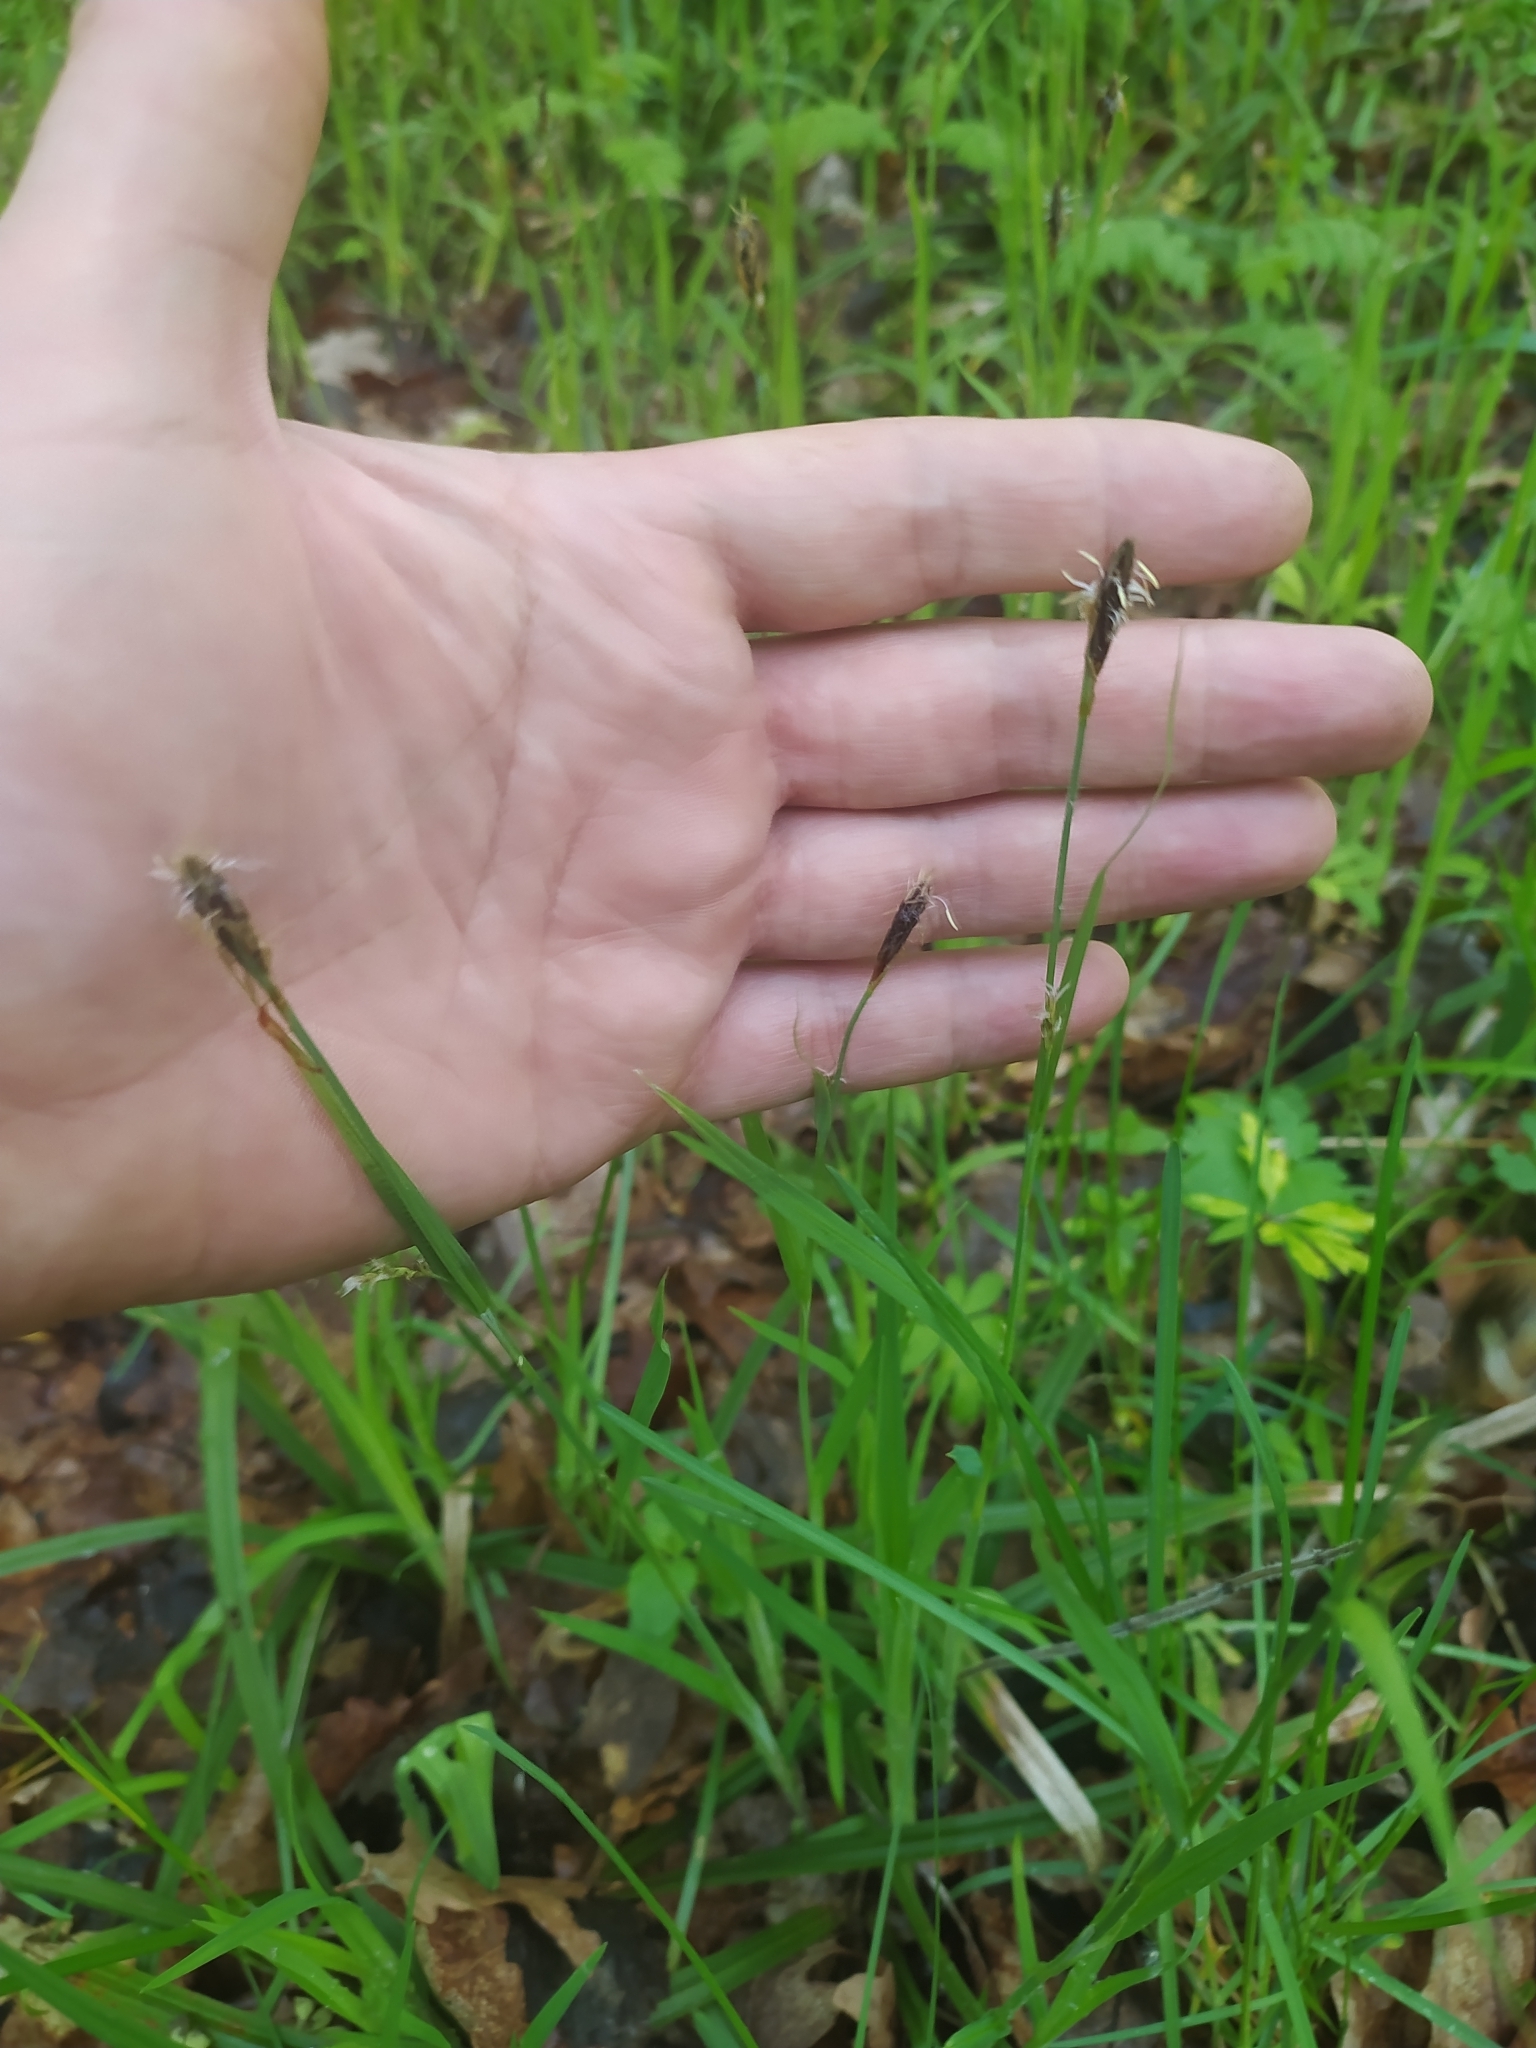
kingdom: Plantae
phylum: Tracheophyta
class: Liliopsida
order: Poales
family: Cyperaceae
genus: Carex
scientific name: Carex pilosa
